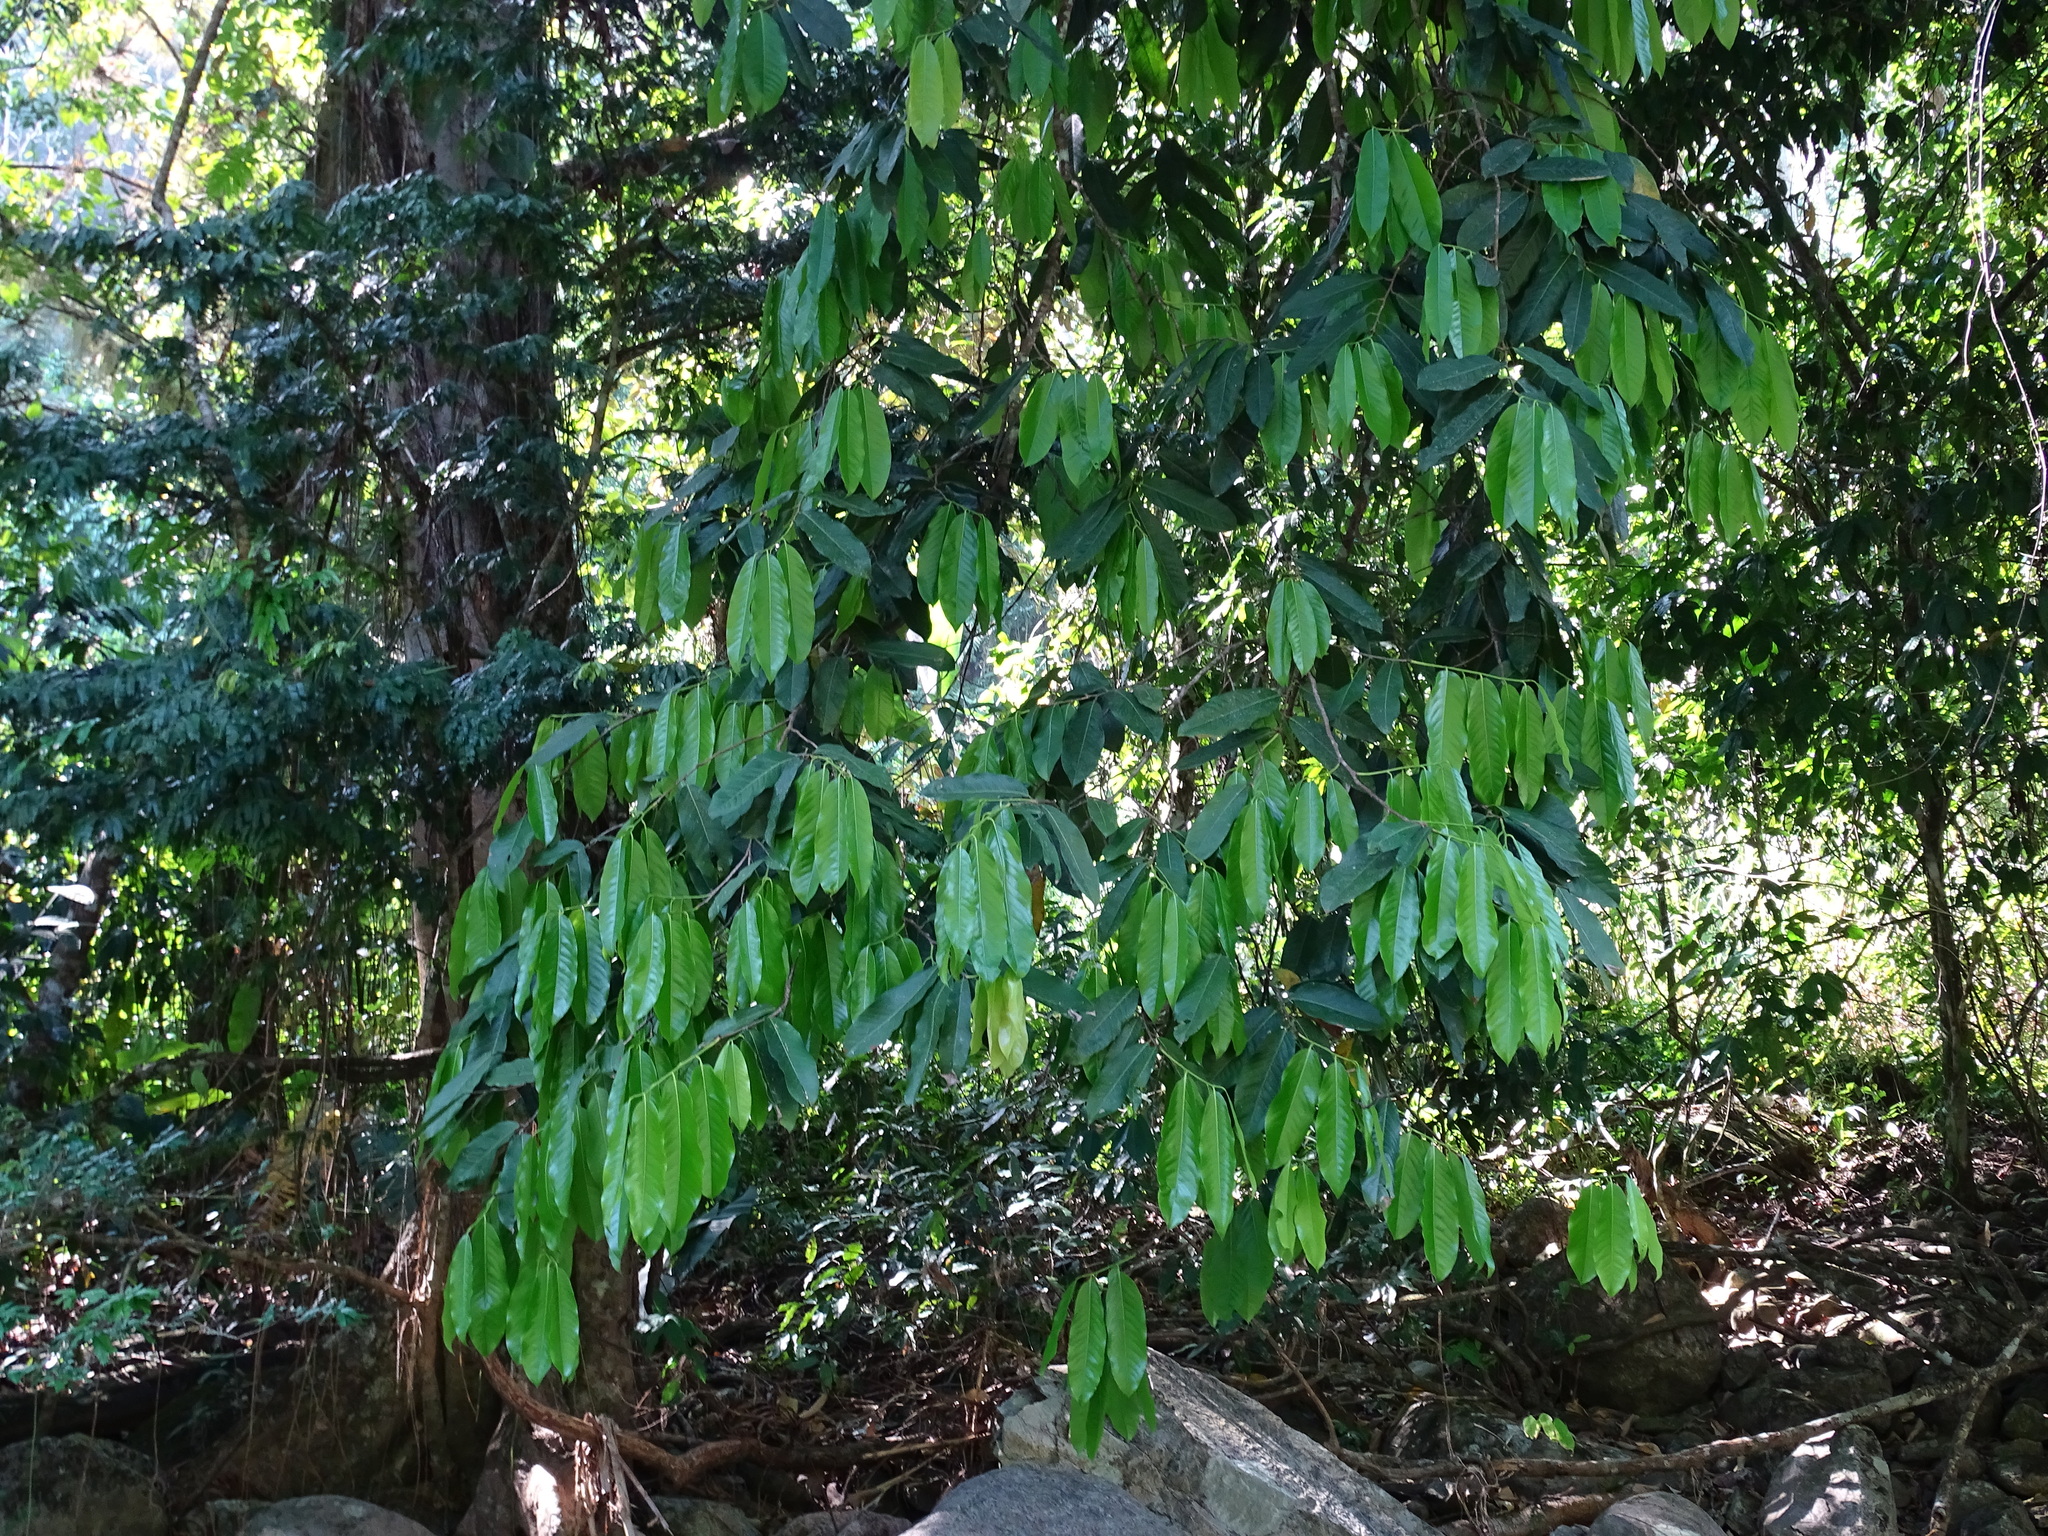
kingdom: Plantae
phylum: Tracheophyta
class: Magnoliopsida
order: Fabales
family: Fabaceae
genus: Machaerium
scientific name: Machaerium kegelii
